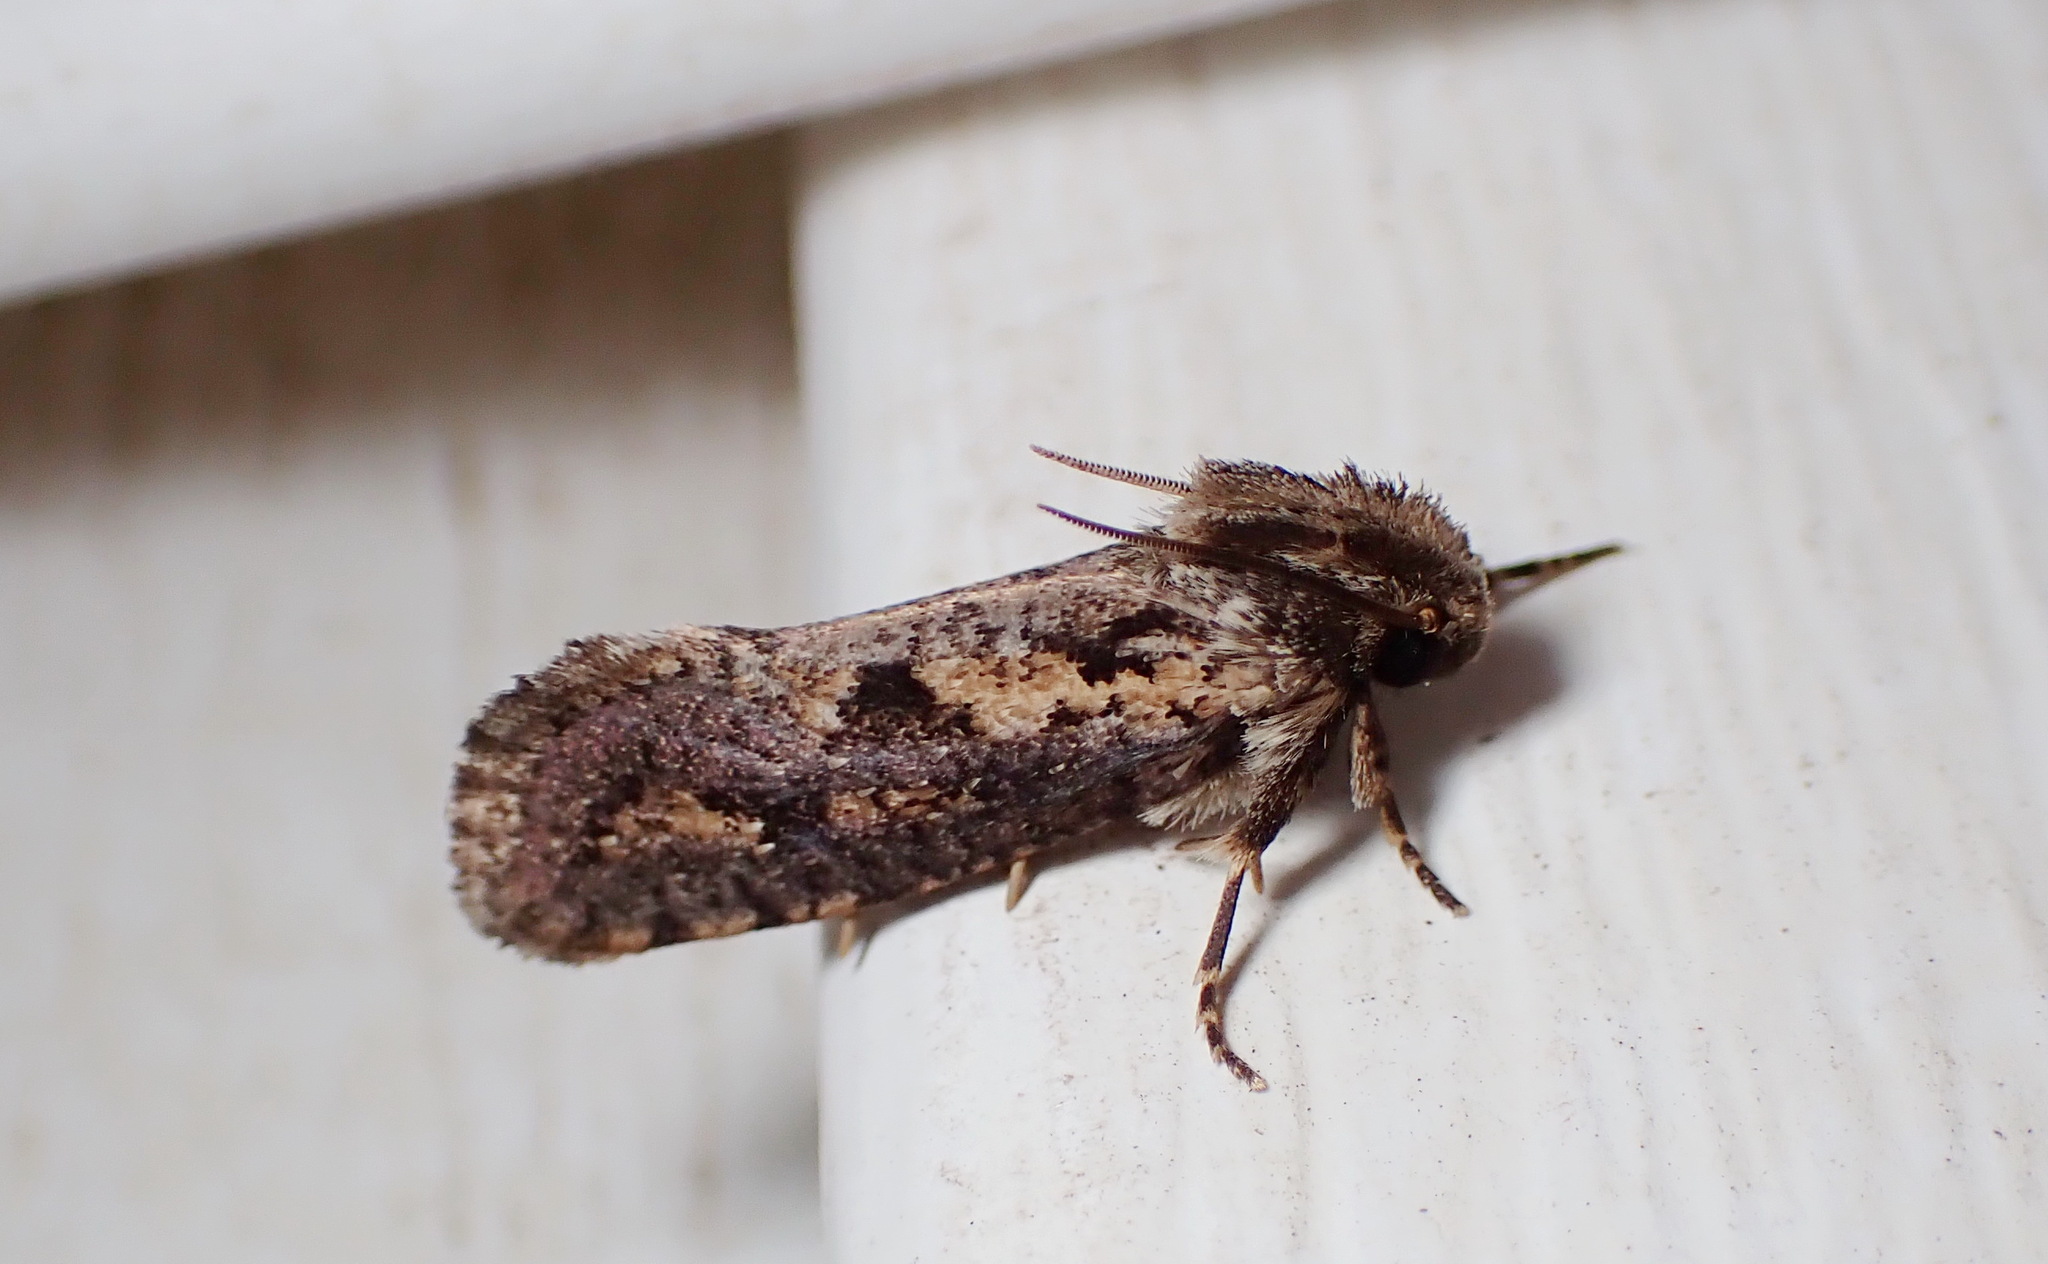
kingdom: Animalia
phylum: Arthropoda
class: Insecta
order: Lepidoptera
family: Tineidae
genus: Acrolophus
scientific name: Acrolophus popeanella
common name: Clemens' grass tubeworm moth
